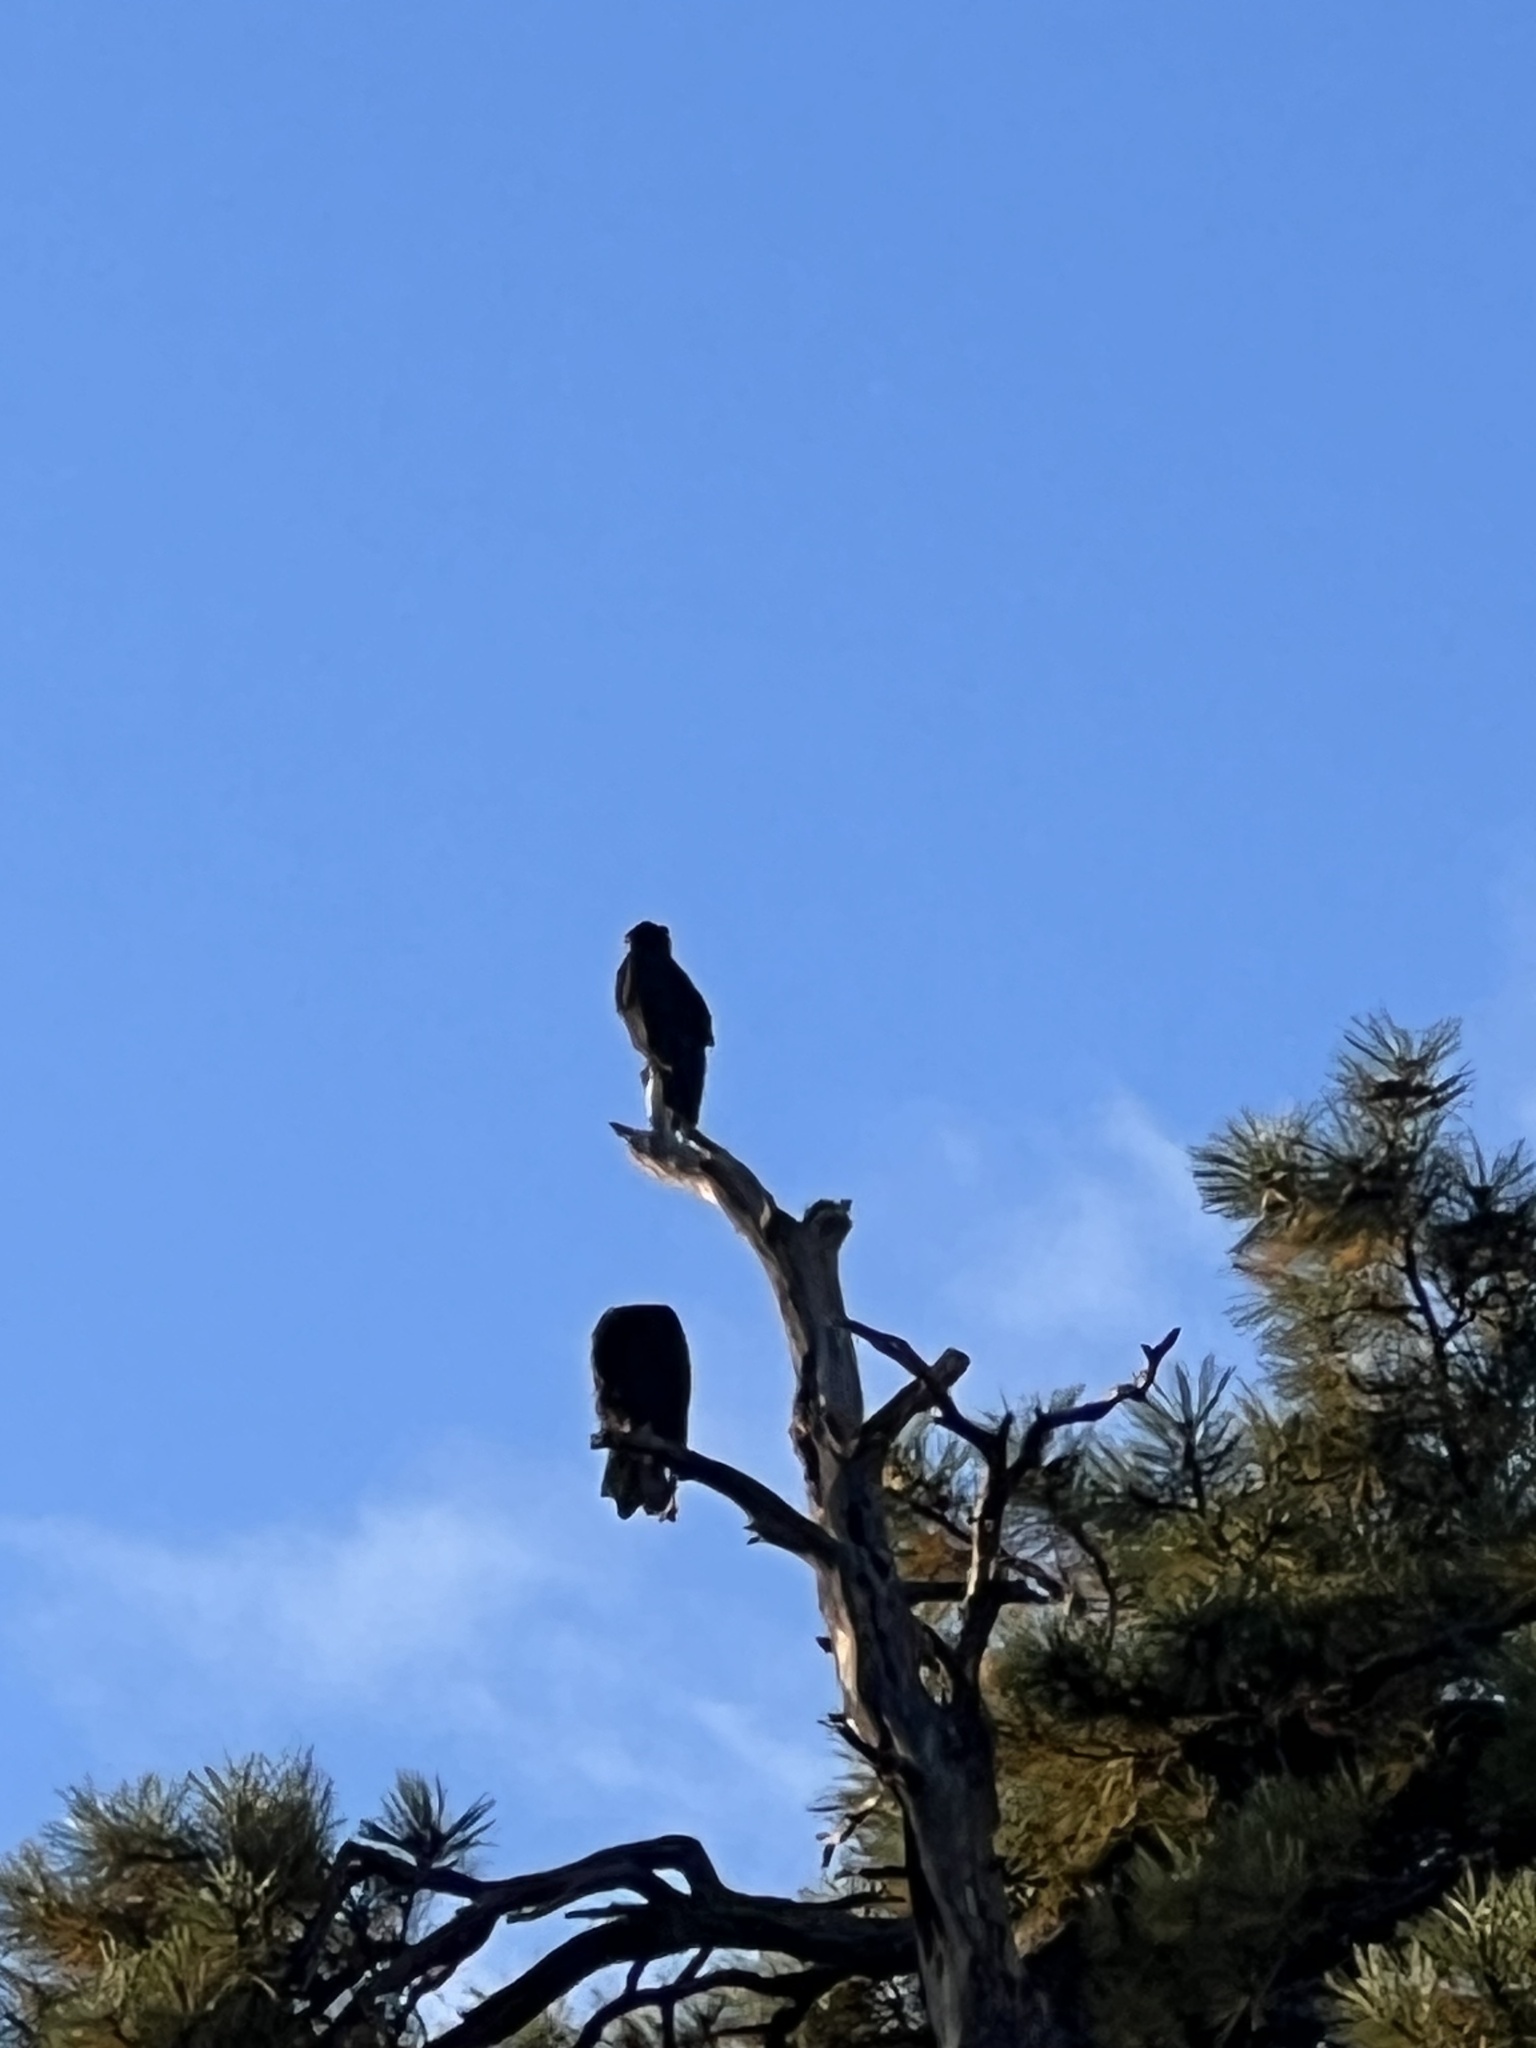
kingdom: Animalia
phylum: Chordata
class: Aves
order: Accipitriformes
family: Cathartidae
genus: Cathartes
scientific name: Cathartes aura
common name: Turkey vulture
